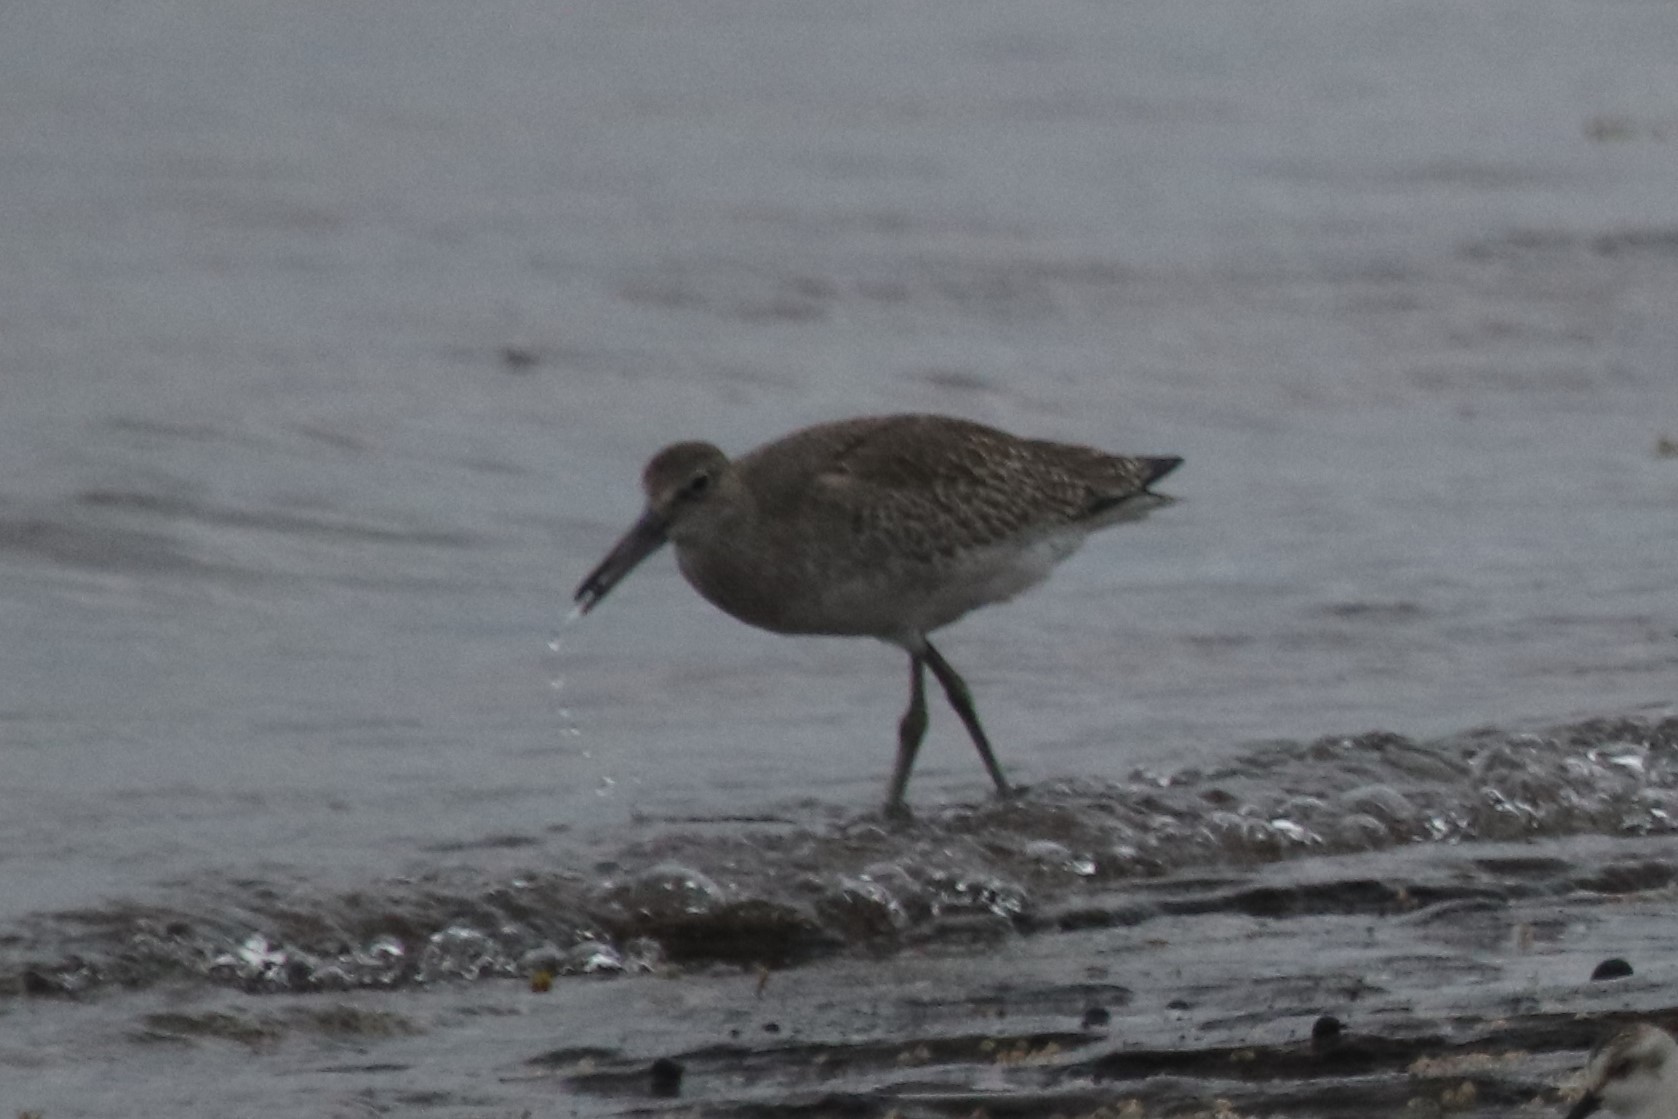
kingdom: Animalia
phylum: Chordata
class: Aves
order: Charadriiformes
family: Scolopacidae
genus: Tringa
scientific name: Tringa semipalmata
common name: Willet
